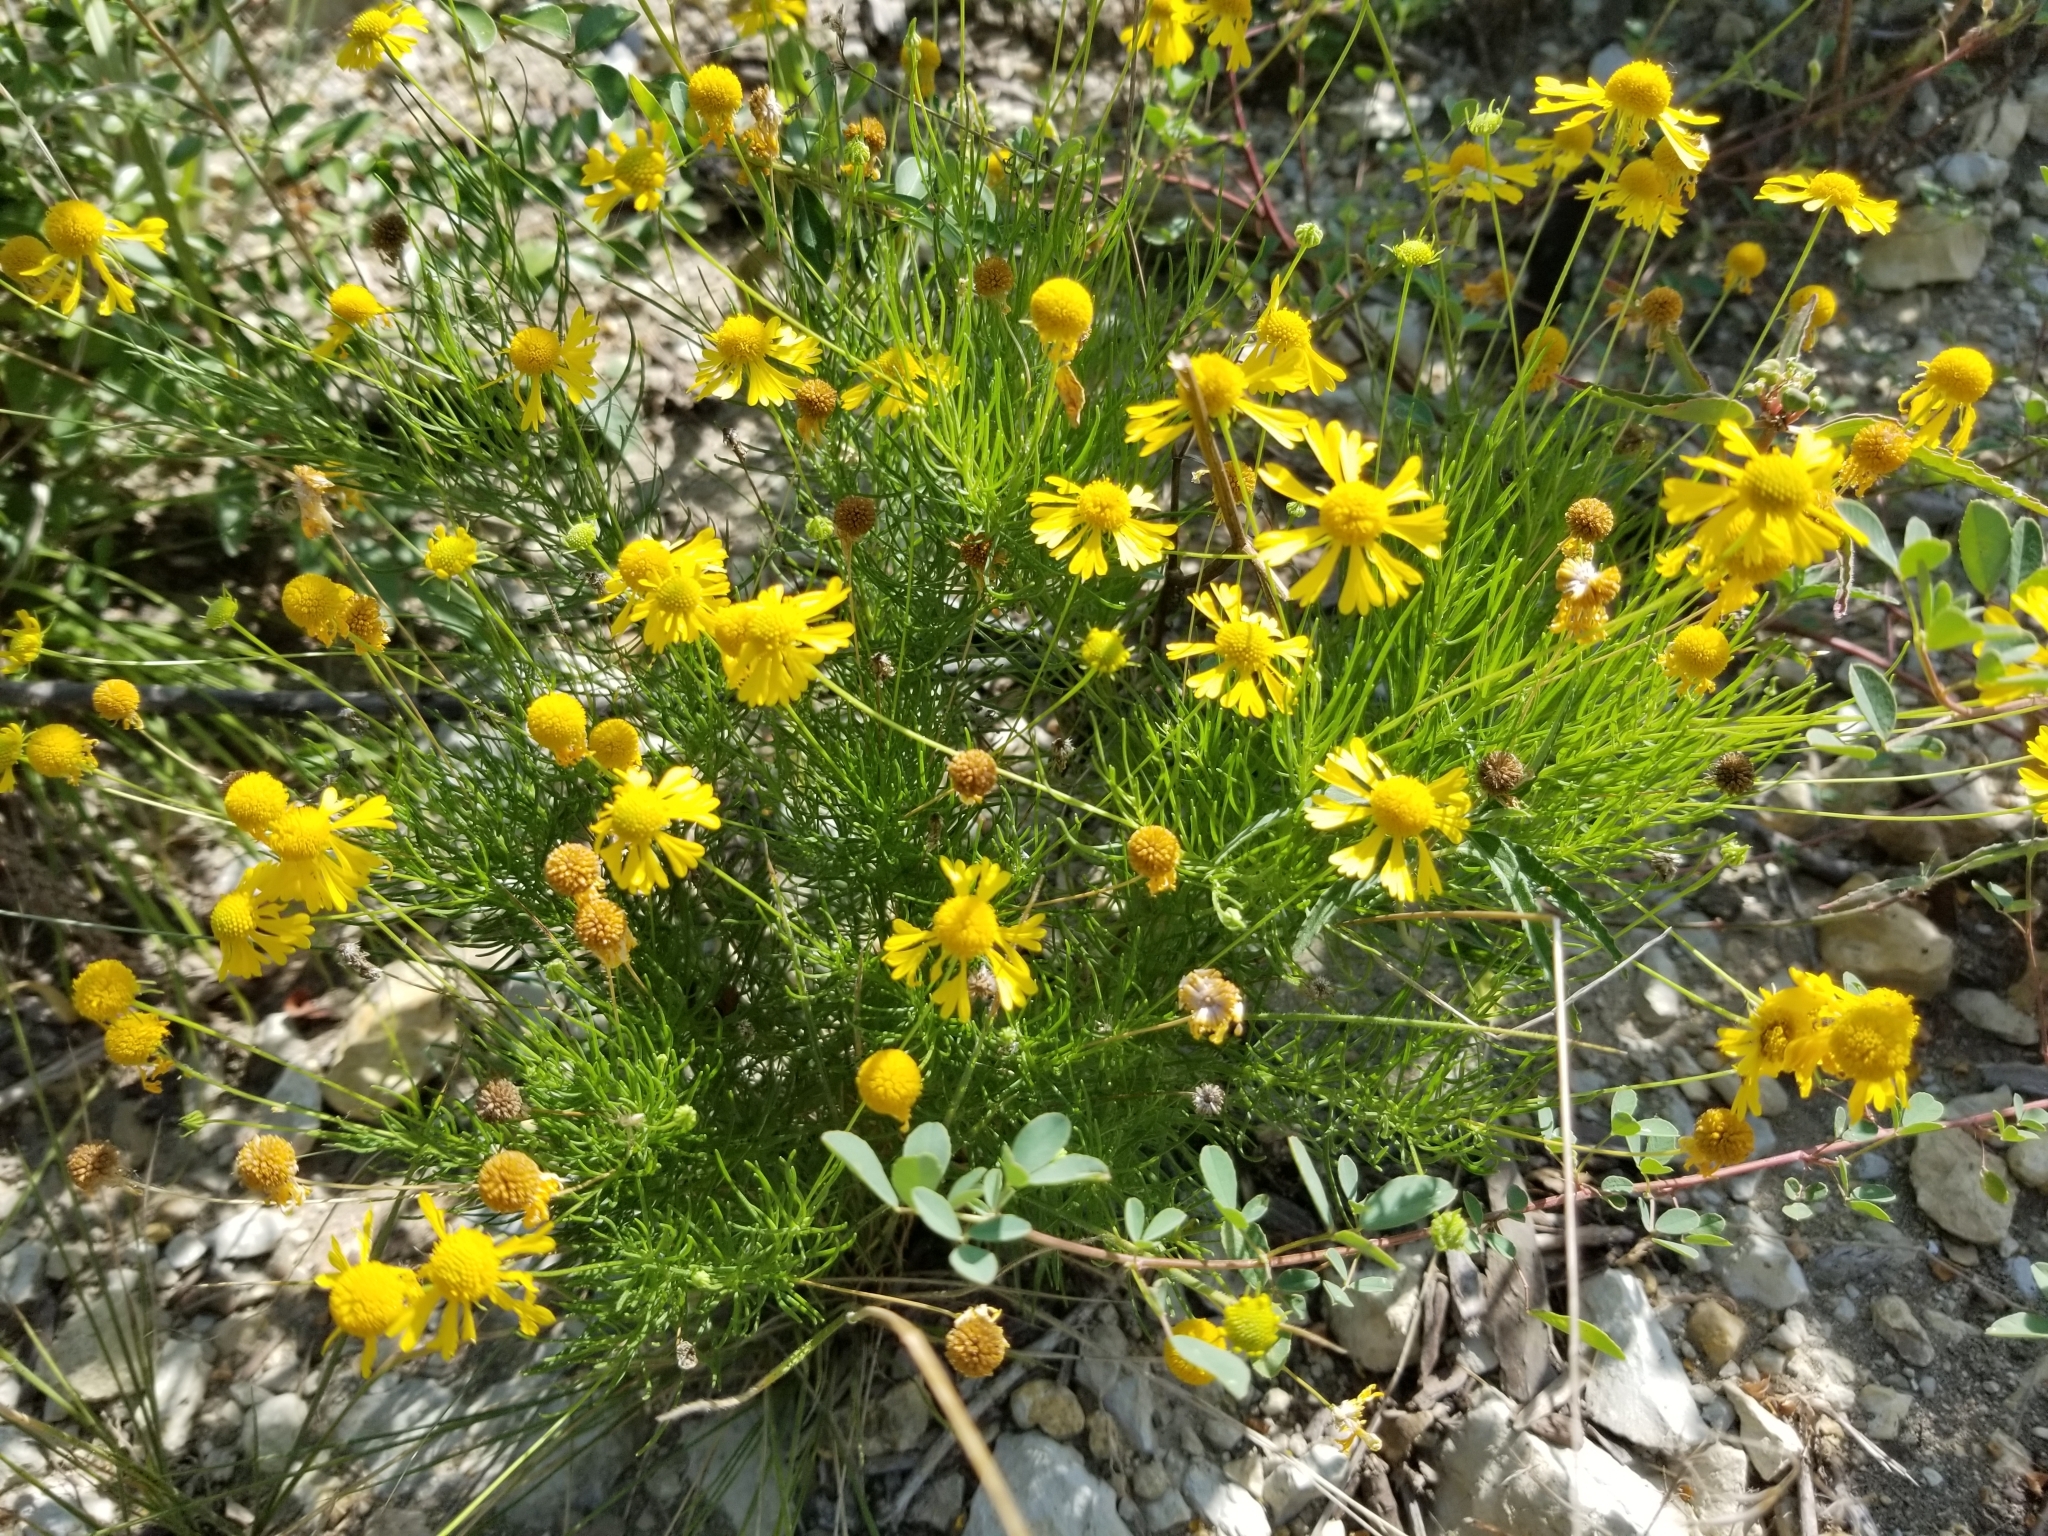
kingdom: Plantae
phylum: Tracheophyta
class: Magnoliopsida
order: Asterales
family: Asteraceae
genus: Helenium
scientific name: Helenium amarum
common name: Bitter sneezeweed
